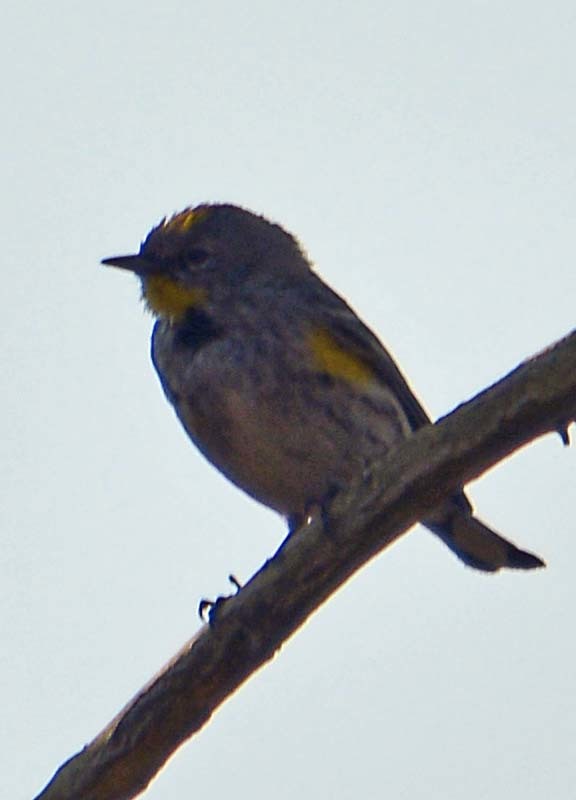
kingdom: Animalia
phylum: Chordata
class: Aves
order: Passeriformes
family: Parulidae
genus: Setophaga
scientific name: Setophaga coronata
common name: Myrtle warbler
